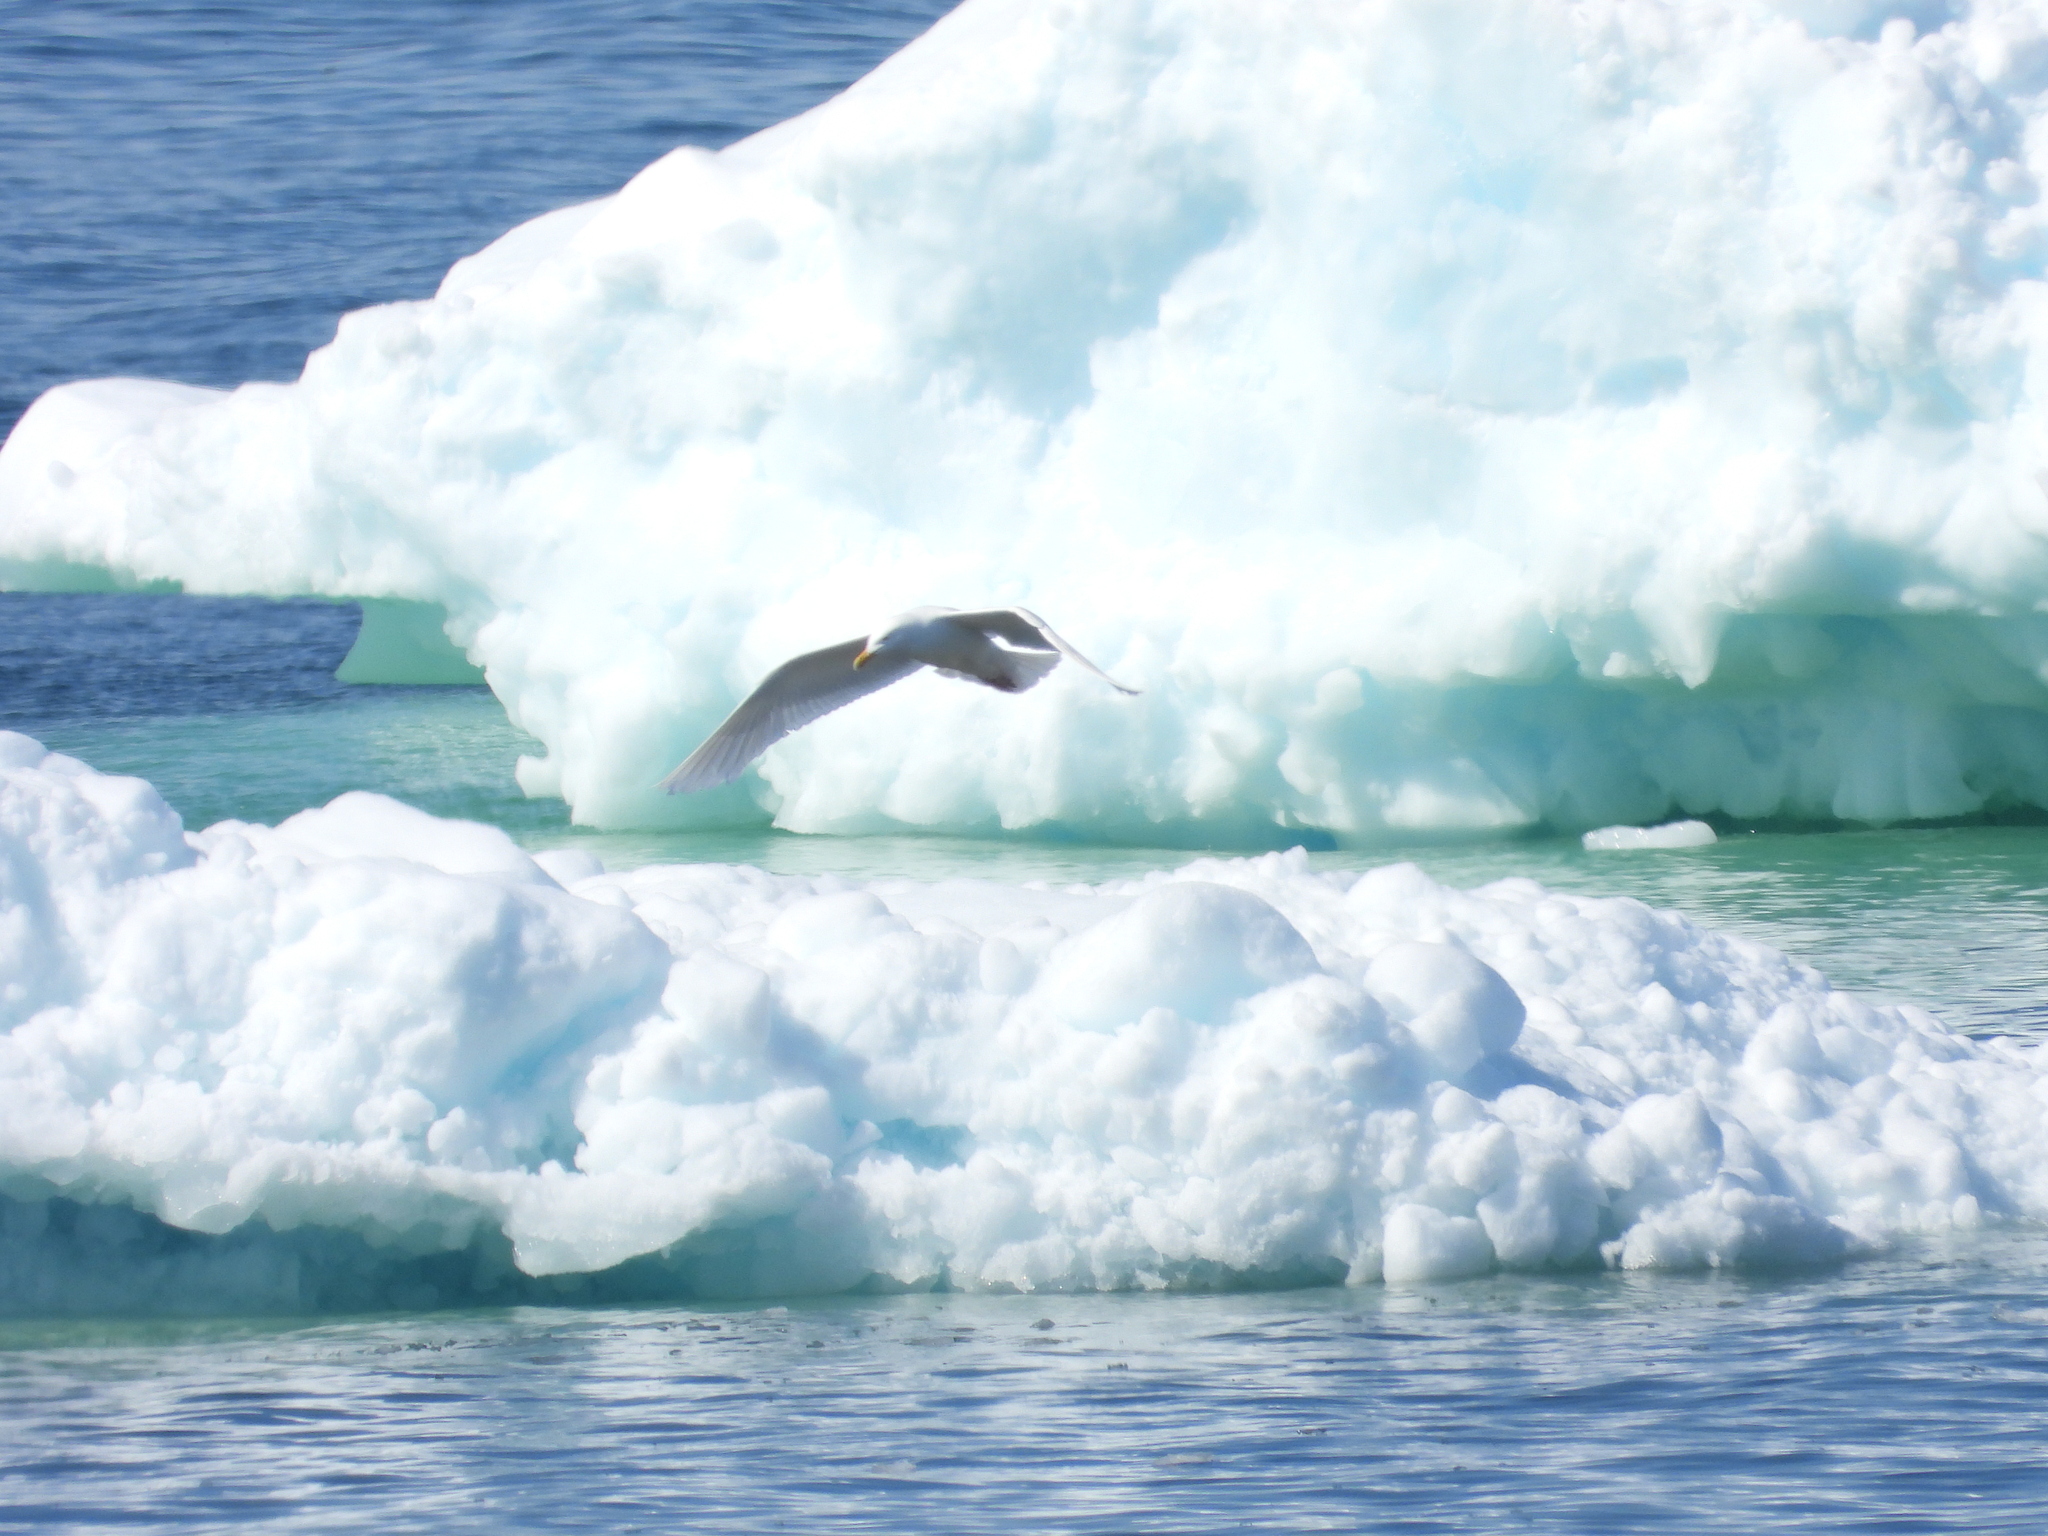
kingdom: Animalia
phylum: Chordata
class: Aves
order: Charadriiformes
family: Laridae
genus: Larus
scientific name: Larus hyperboreus
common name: Glaucous gull
